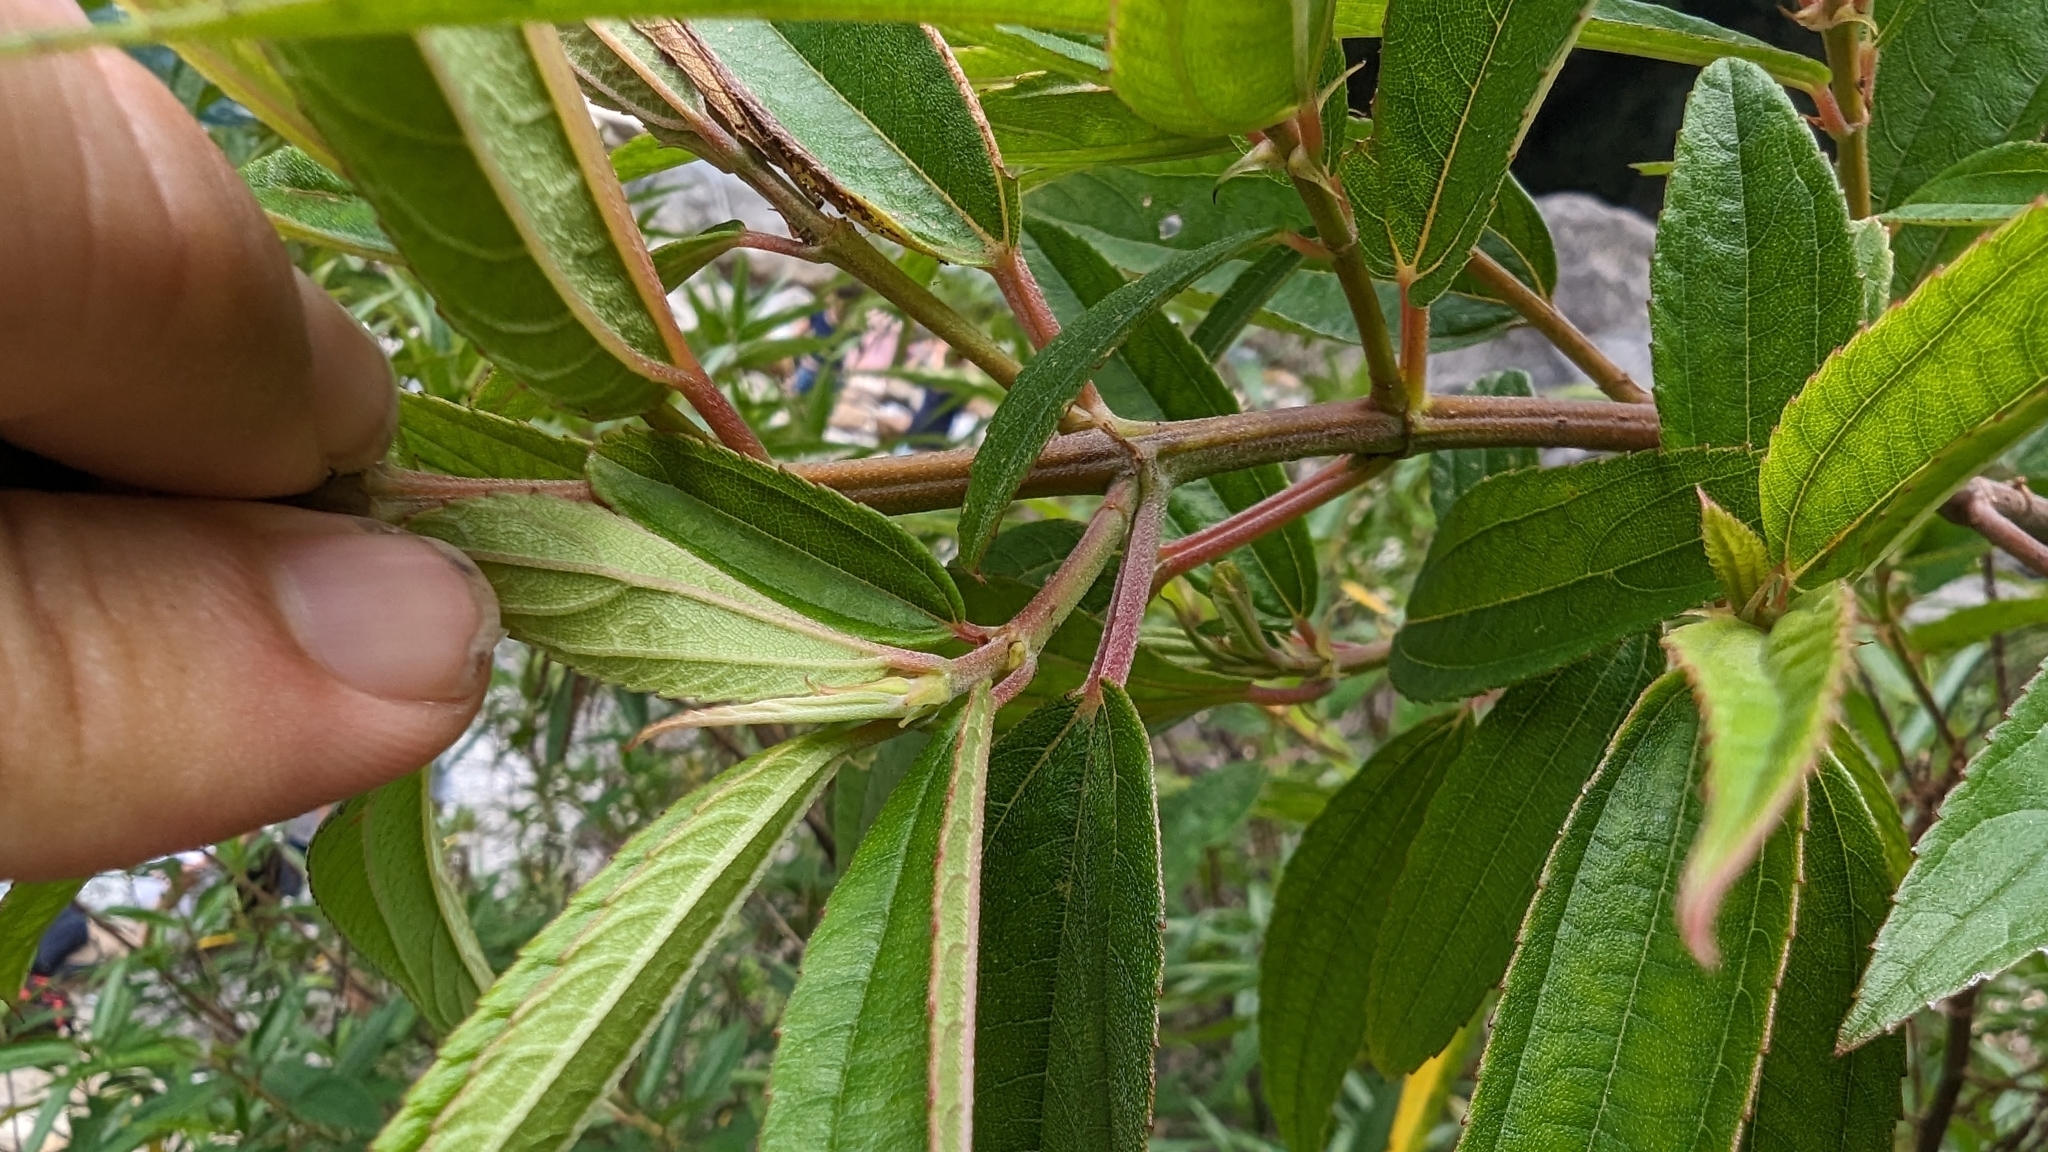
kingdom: Plantae
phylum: Tracheophyta
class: Magnoliopsida
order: Rosales
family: Urticaceae
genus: Boehmeria
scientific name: Boehmeria densiflora
